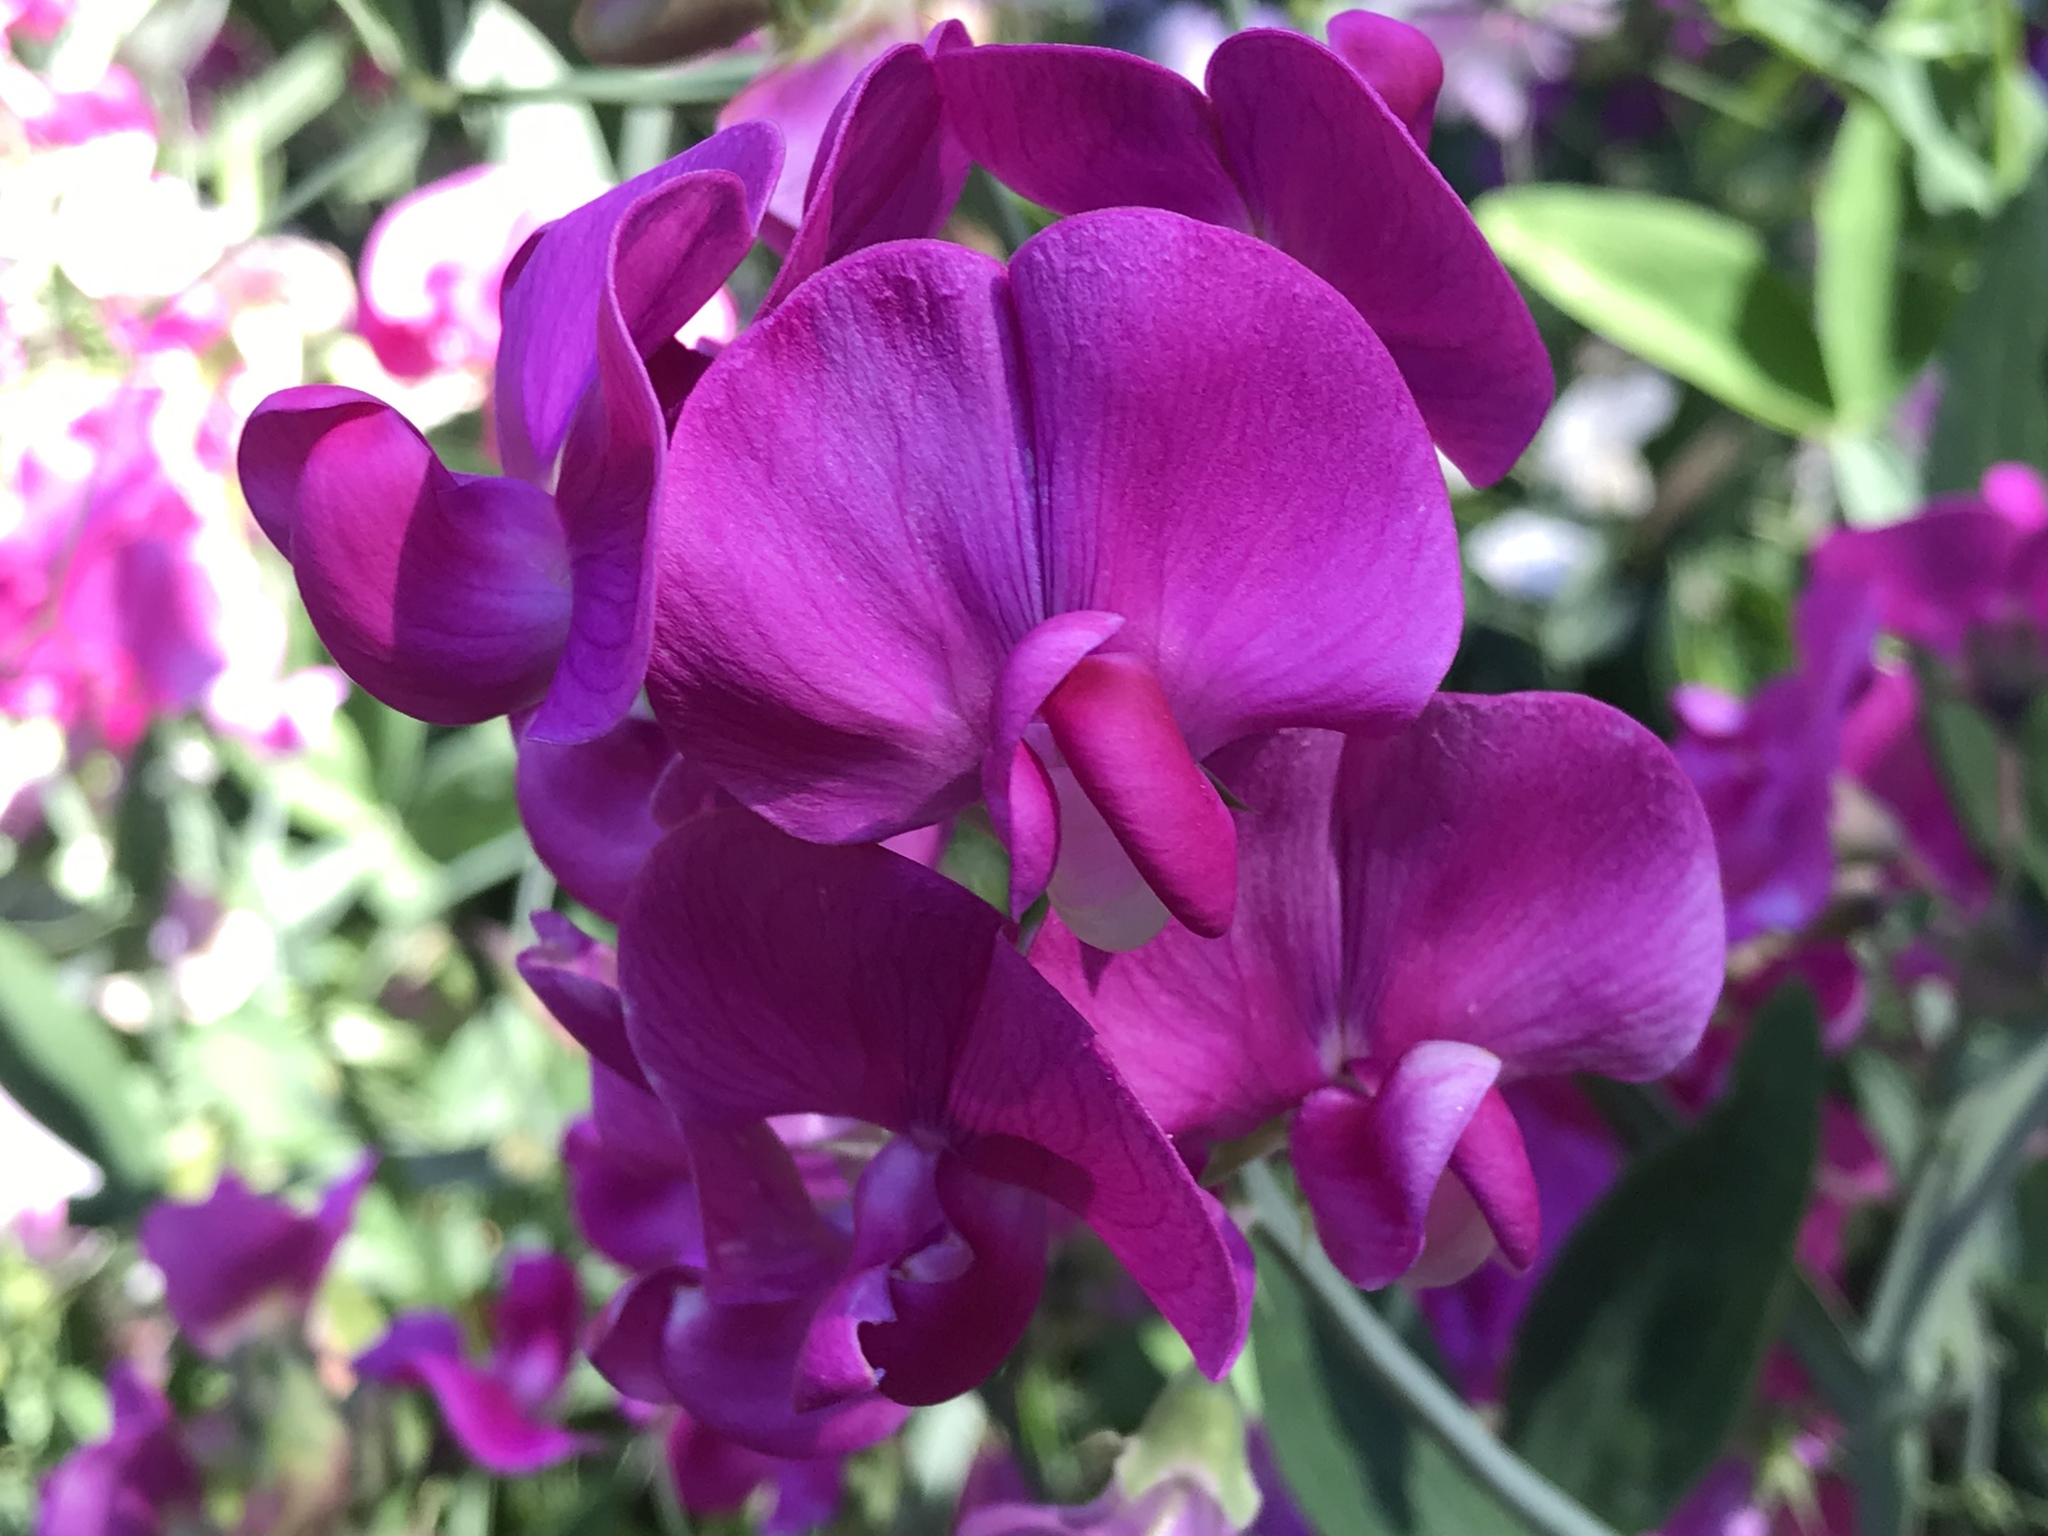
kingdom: Plantae
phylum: Tracheophyta
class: Magnoliopsida
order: Fabales
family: Fabaceae
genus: Lathyrus
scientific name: Lathyrus latifolius
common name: Perennial pea
